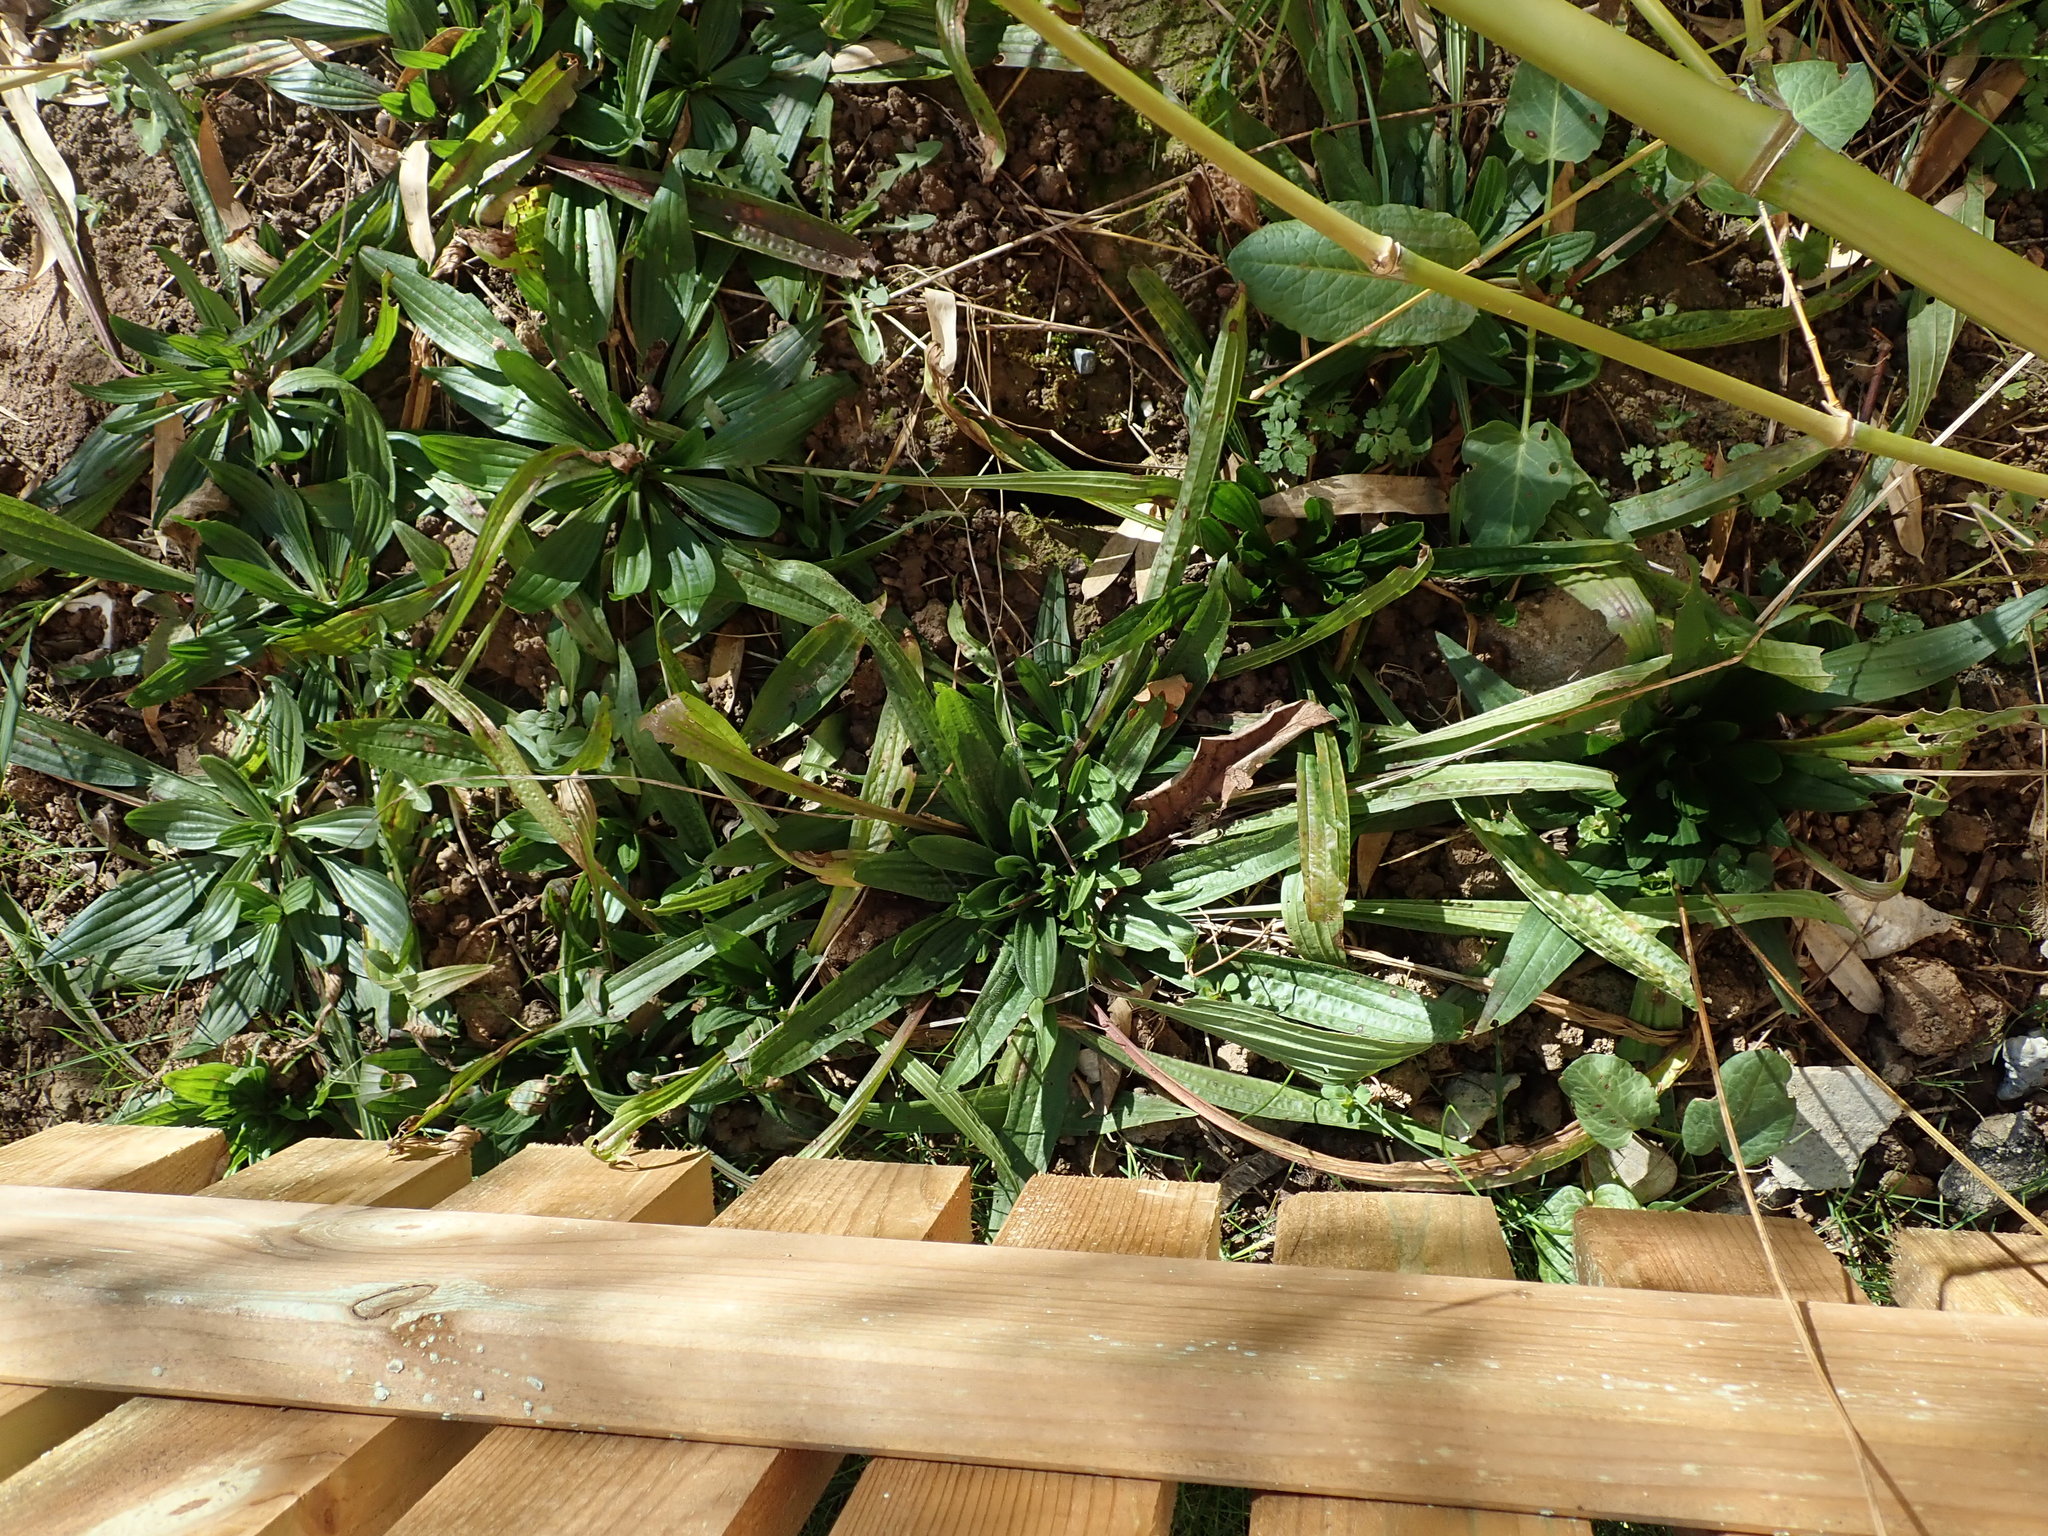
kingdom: Plantae
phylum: Tracheophyta
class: Magnoliopsida
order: Lamiales
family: Plantaginaceae
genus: Plantago
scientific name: Plantago lanceolata
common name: Ribwort plantain
